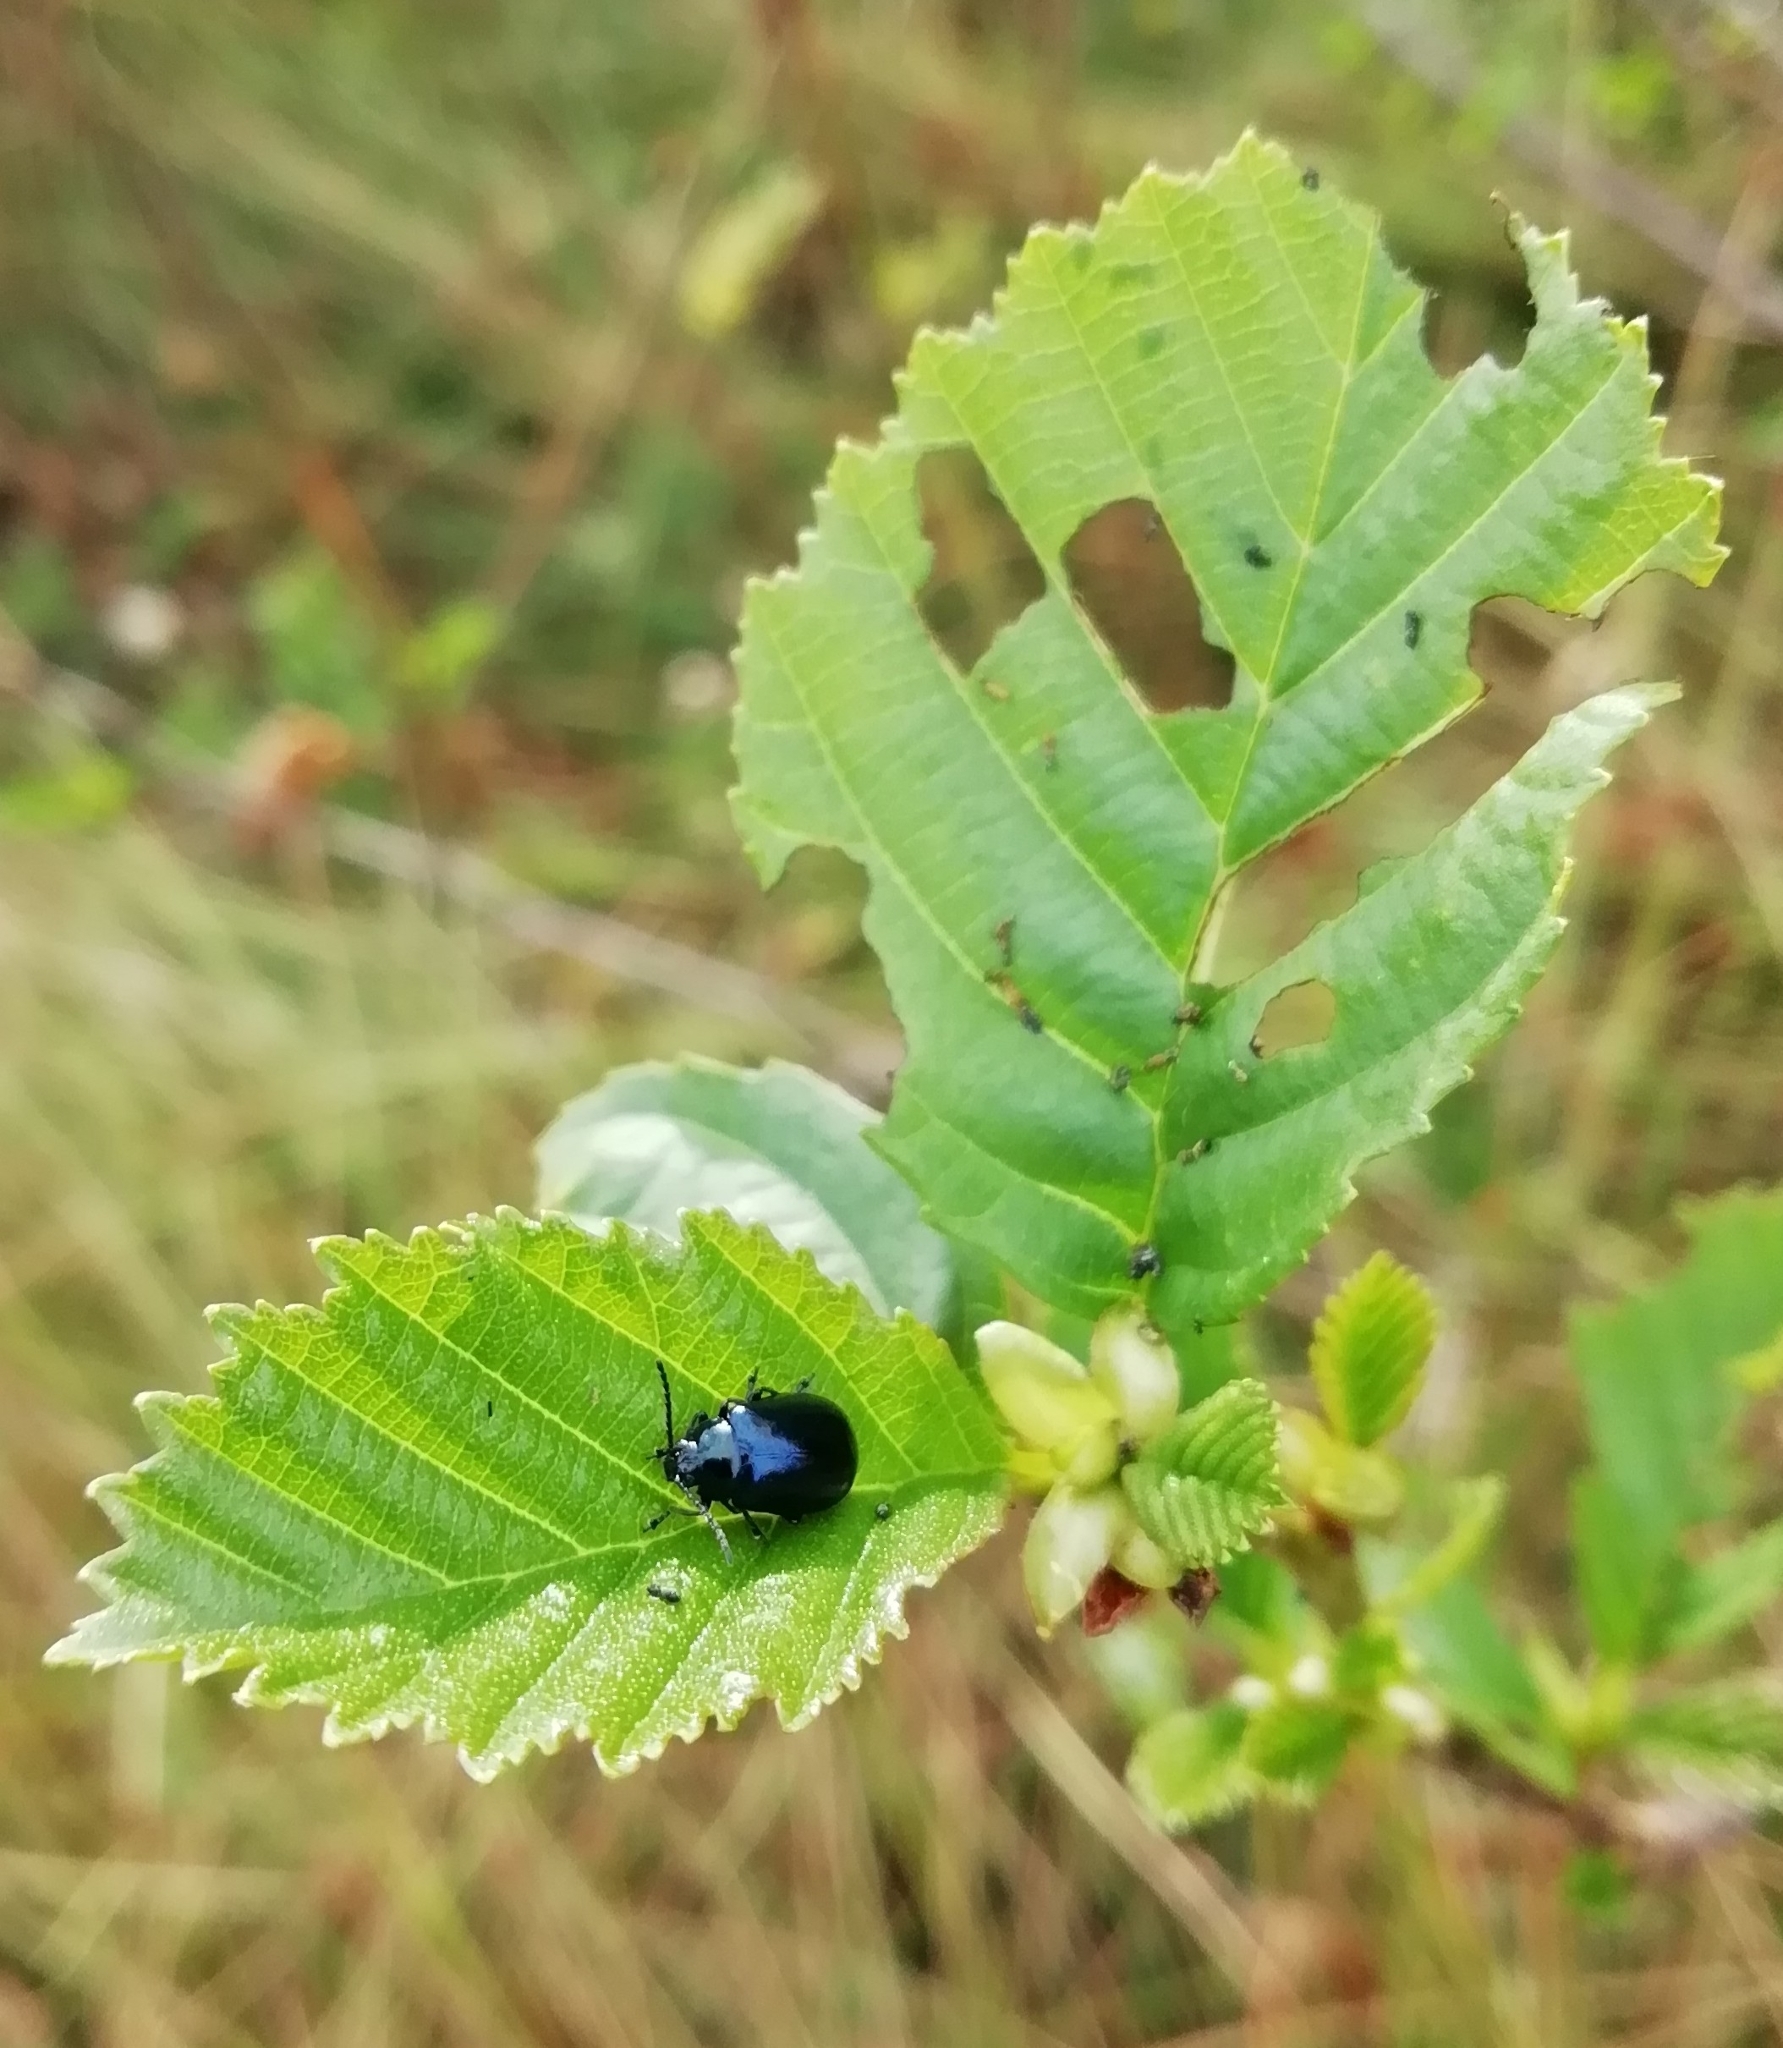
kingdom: Animalia
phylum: Arthropoda
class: Insecta
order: Coleoptera
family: Chrysomelidae
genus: Agelastica
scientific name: Agelastica alni
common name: Alder leaf beetle
